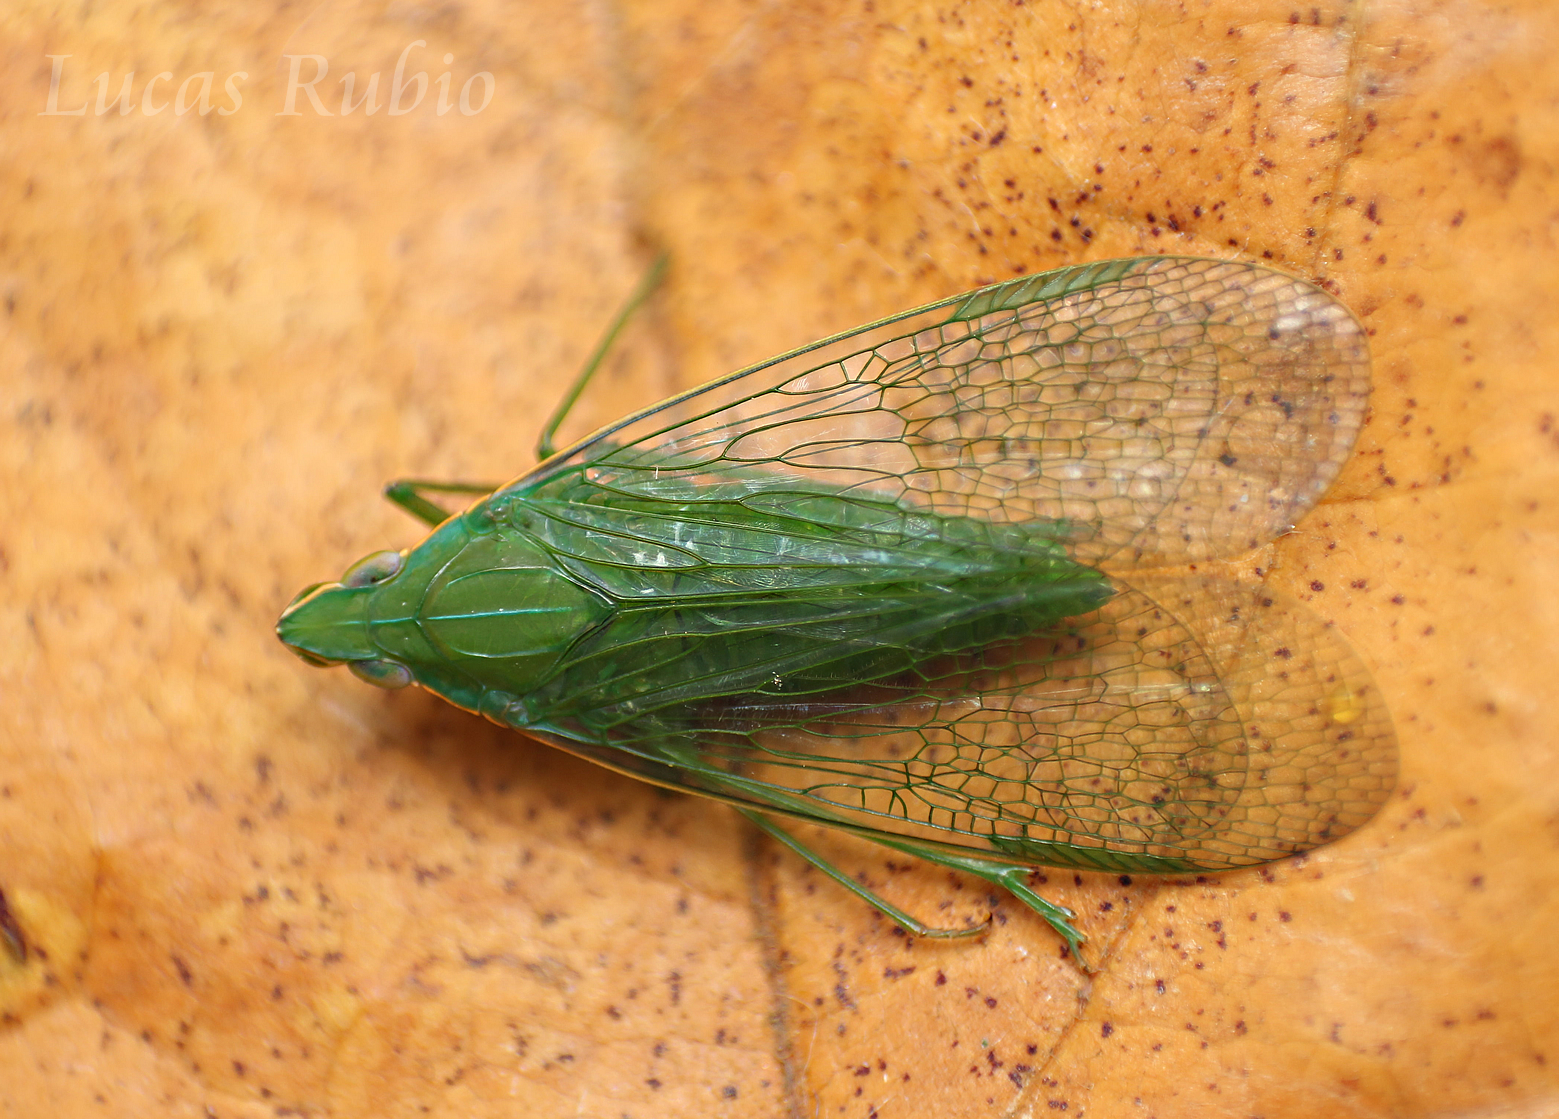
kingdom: Animalia
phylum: Arthropoda
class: Insecta
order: Hemiptera
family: Dictyopharidae
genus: Pteroplegma
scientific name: Pteroplegma jacobania
